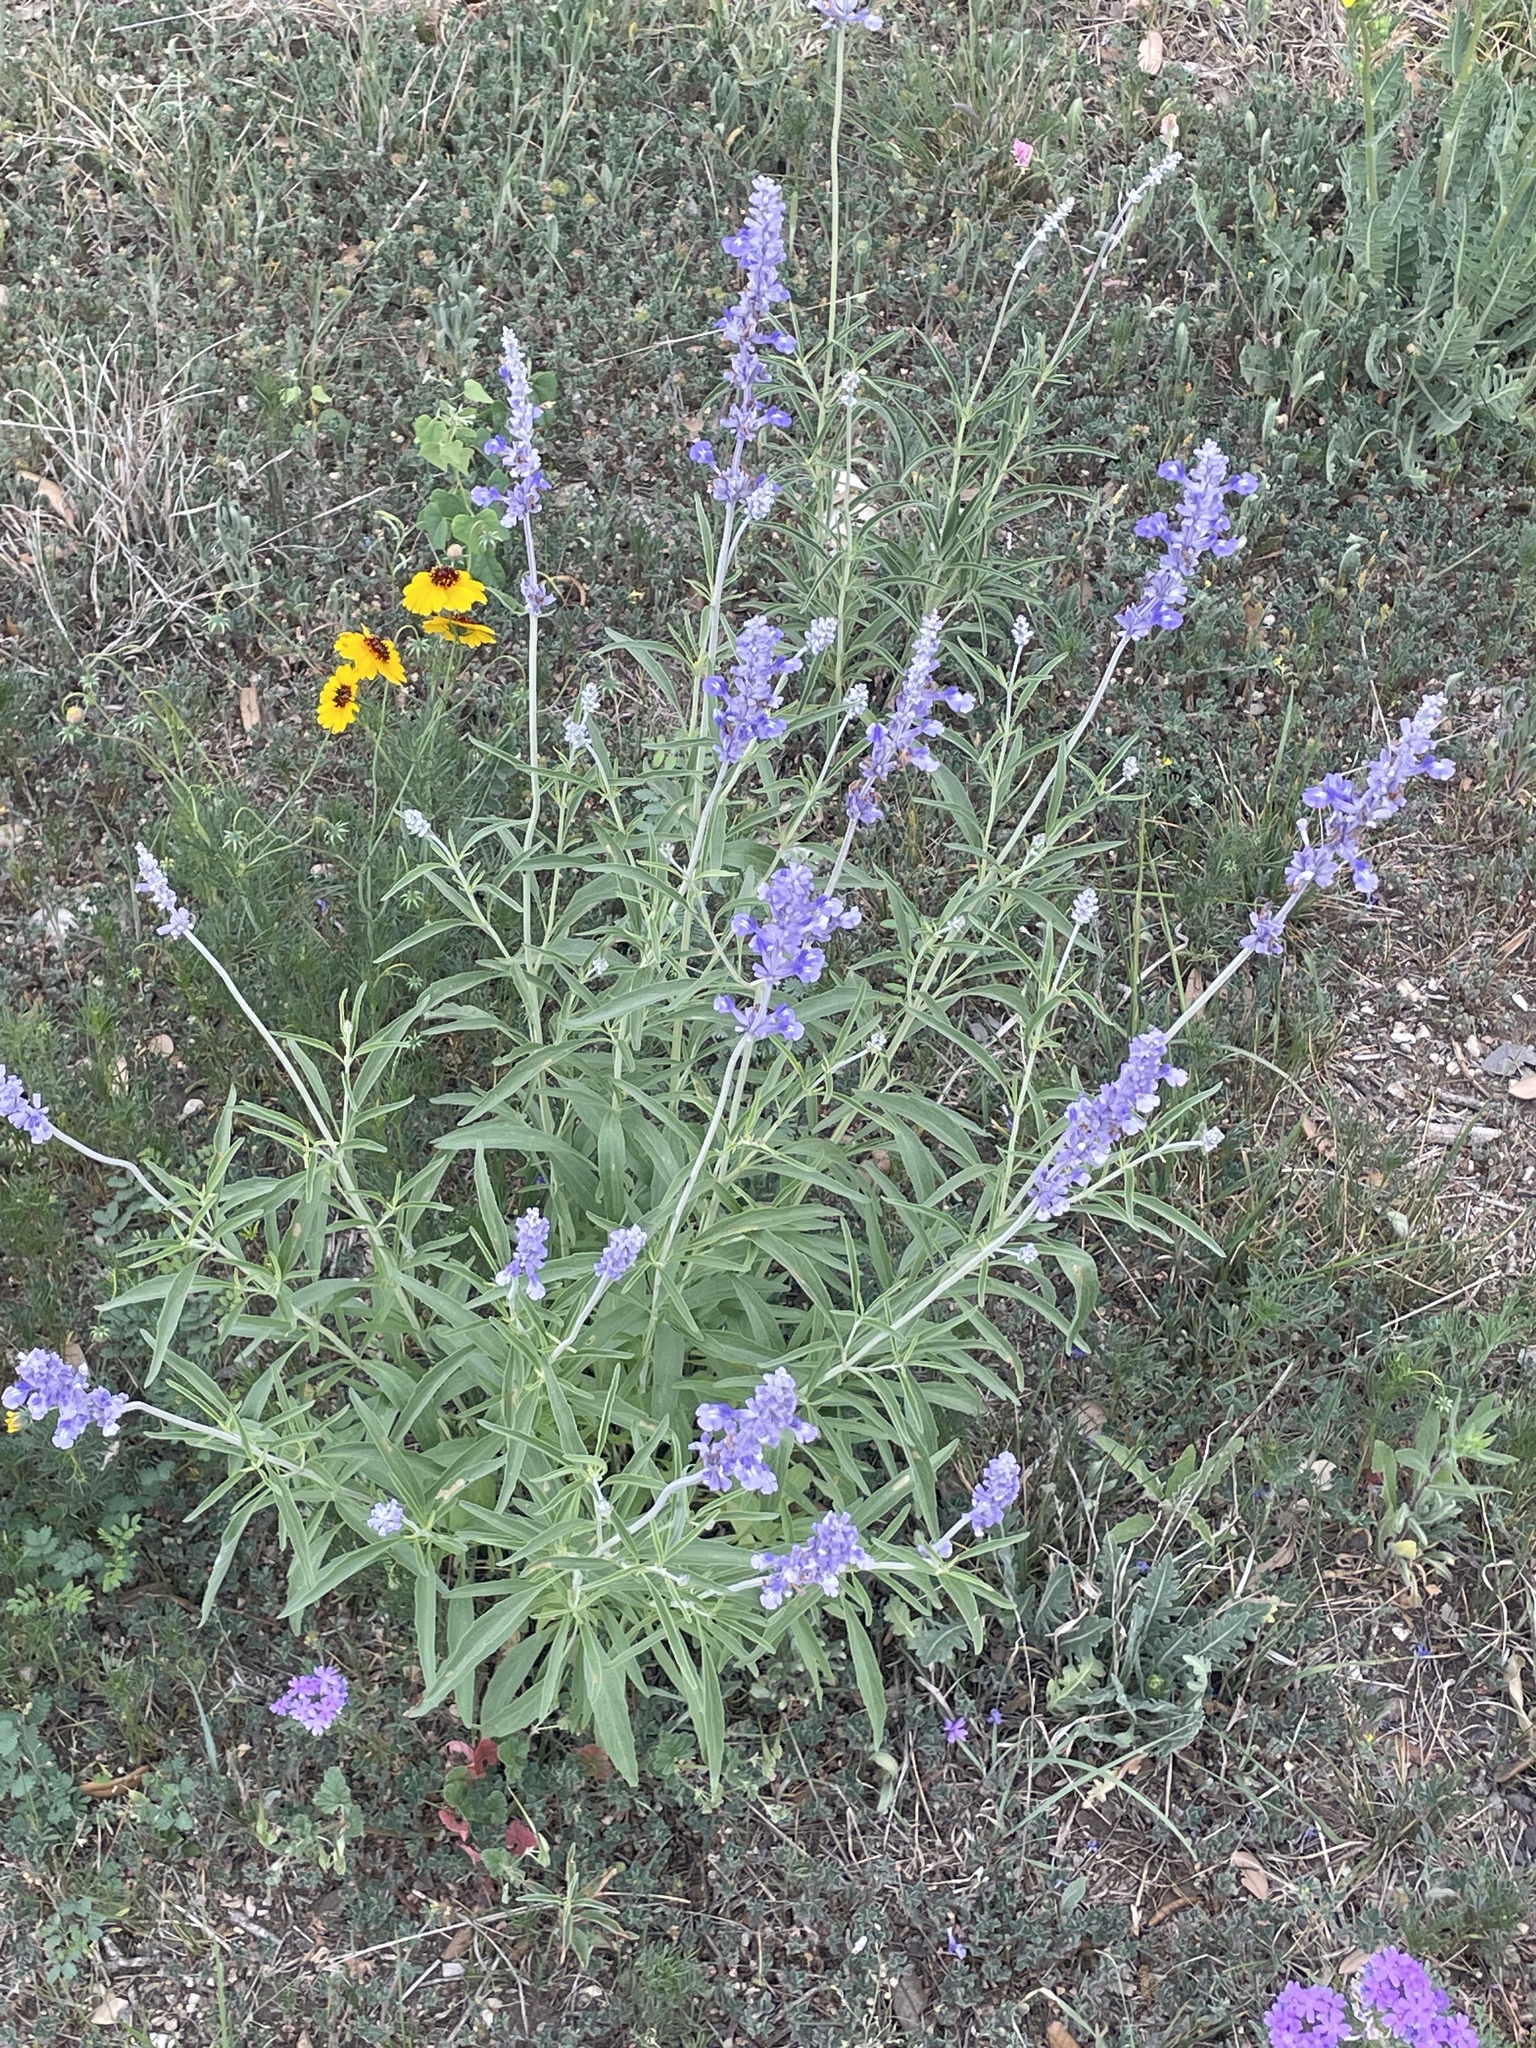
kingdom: Plantae
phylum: Tracheophyta
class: Magnoliopsida
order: Lamiales
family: Lamiaceae
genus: Salvia
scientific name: Salvia farinacea
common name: Mealy sage
